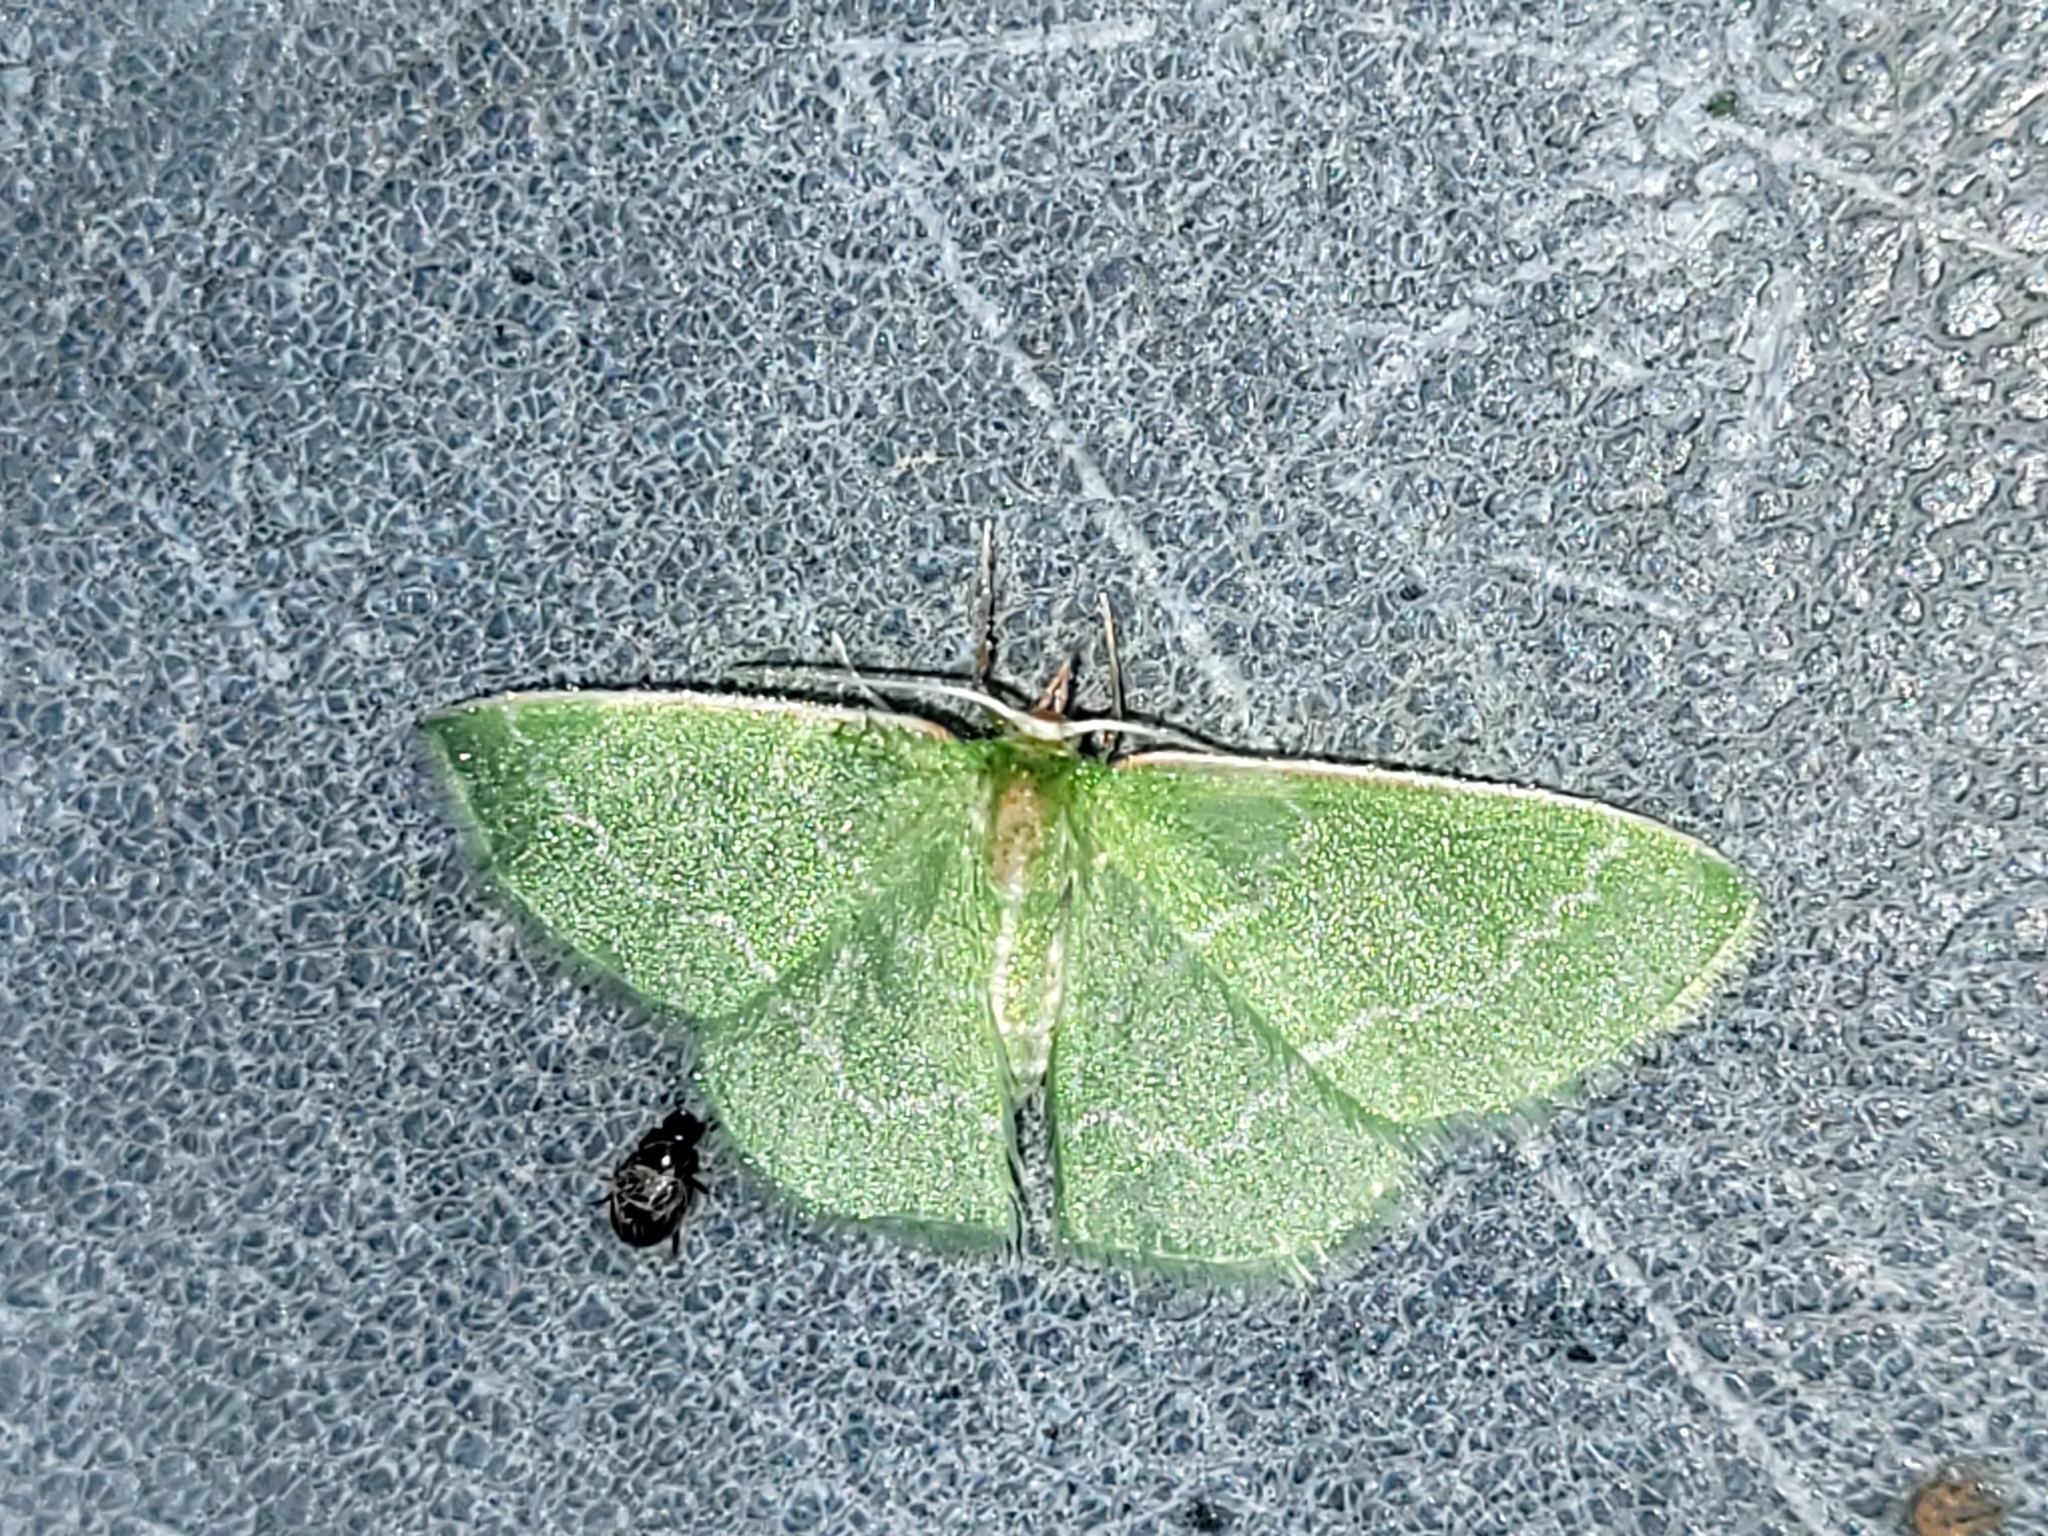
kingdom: Animalia
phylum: Arthropoda
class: Insecta
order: Lepidoptera
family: Geometridae
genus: Synchlora
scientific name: Synchlora aerata
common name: Wavy-lined emerald
